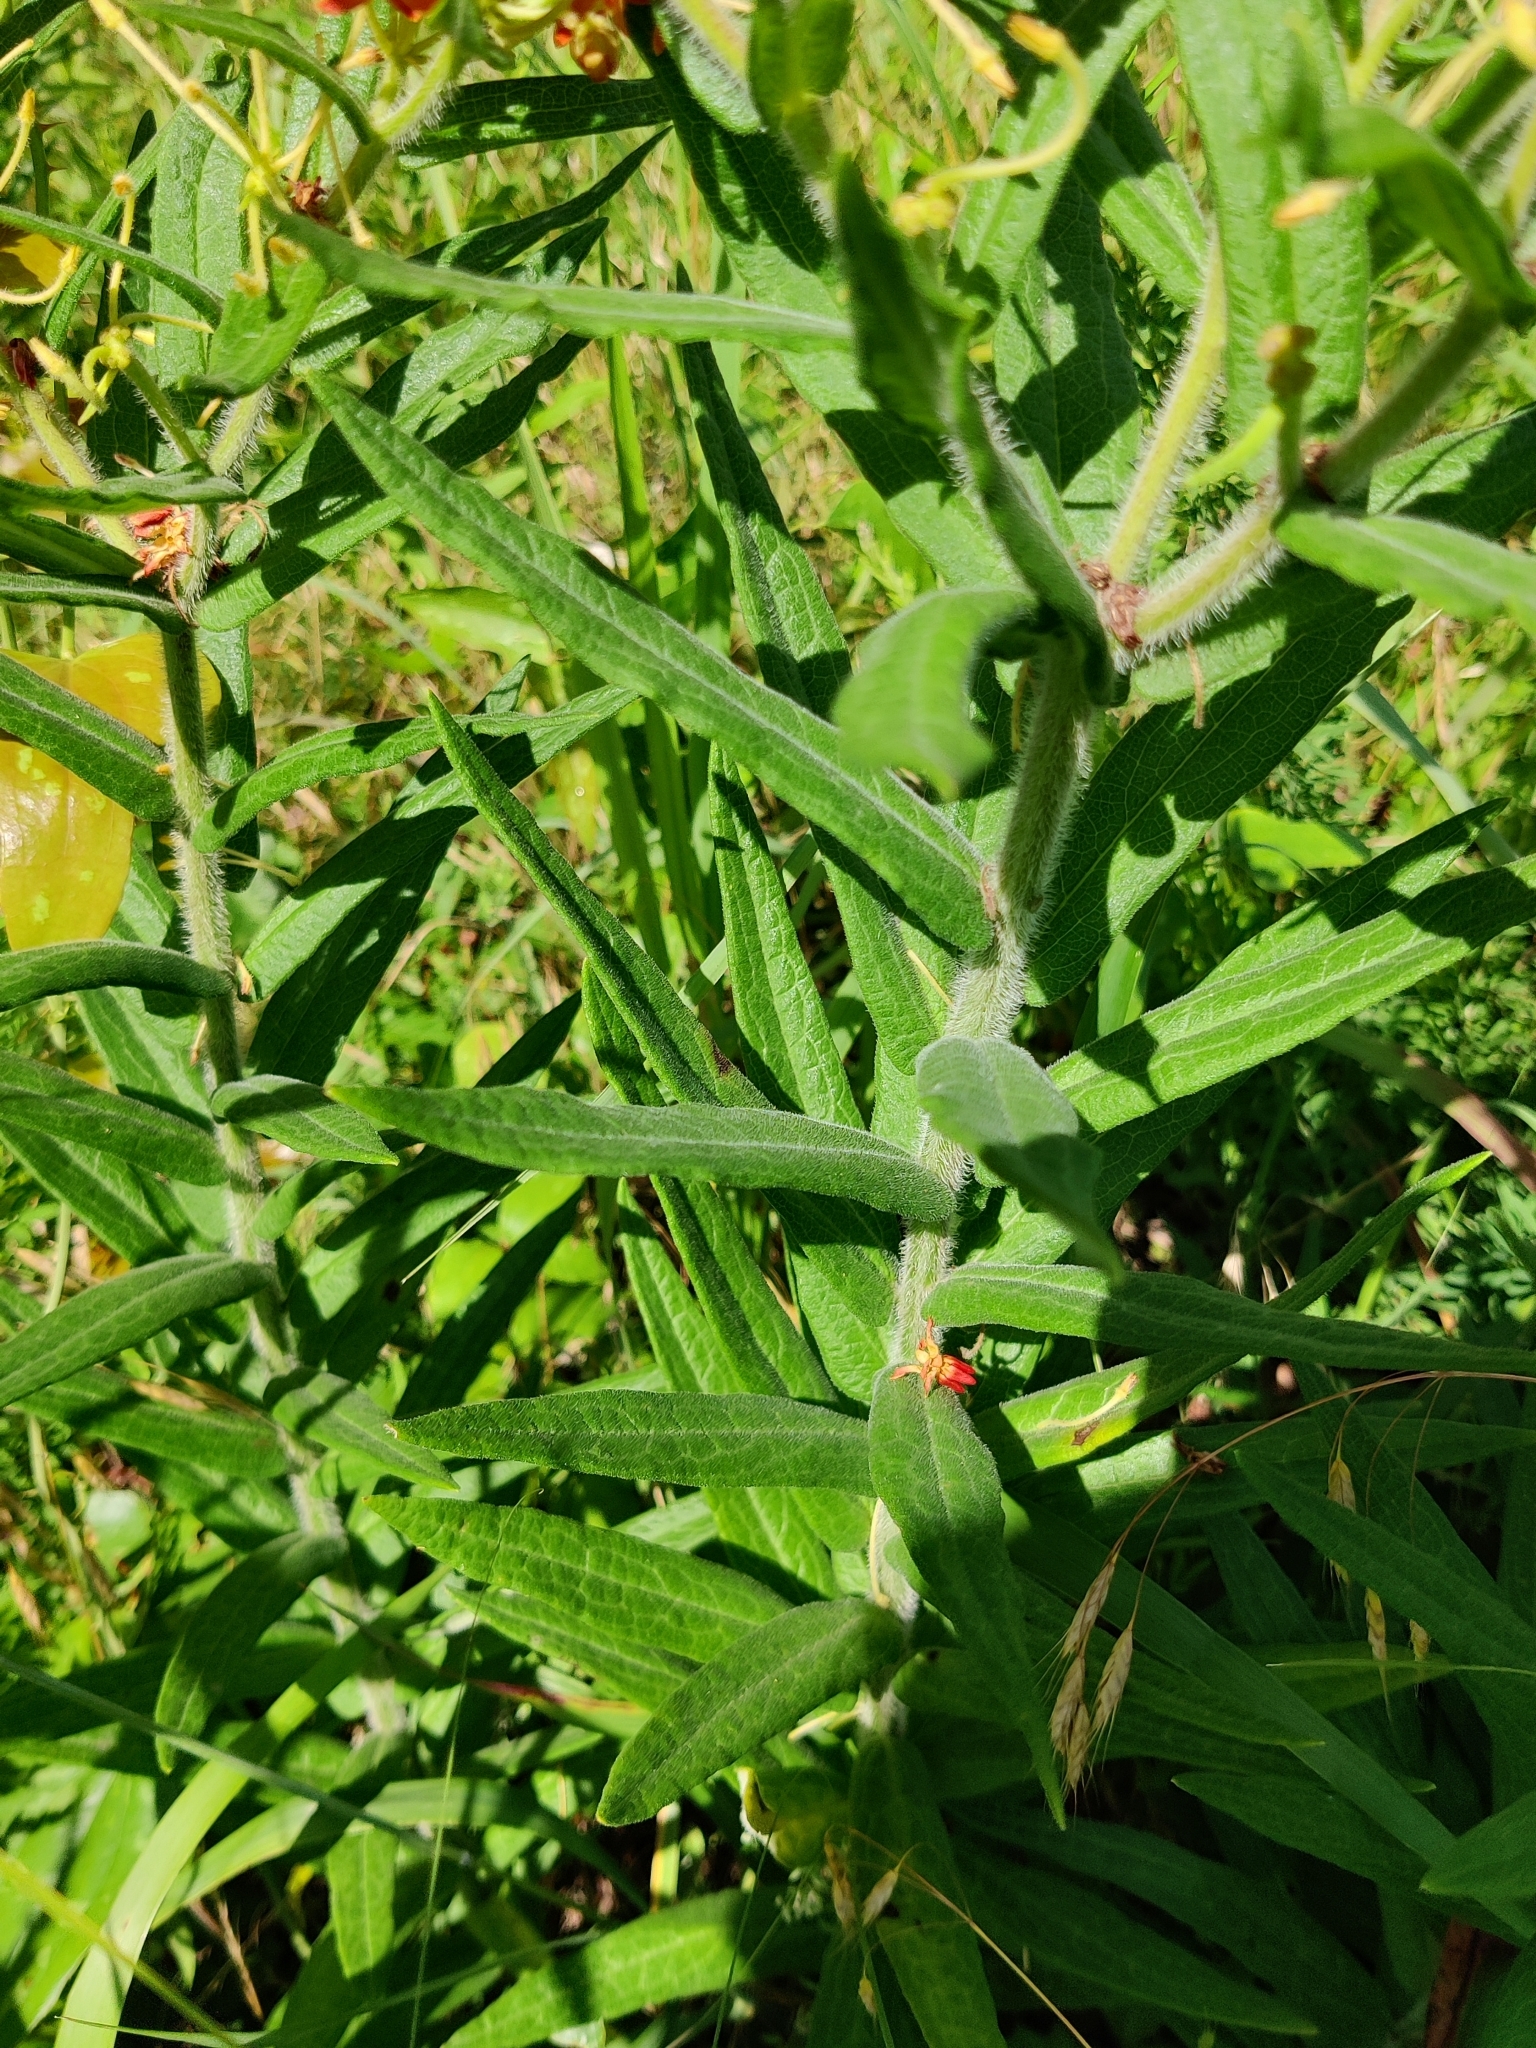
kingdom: Plantae
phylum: Tracheophyta
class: Magnoliopsida
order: Gentianales
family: Apocynaceae
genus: Asclepias
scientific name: Asclepias tuberosa
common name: Butterfly milkweed
